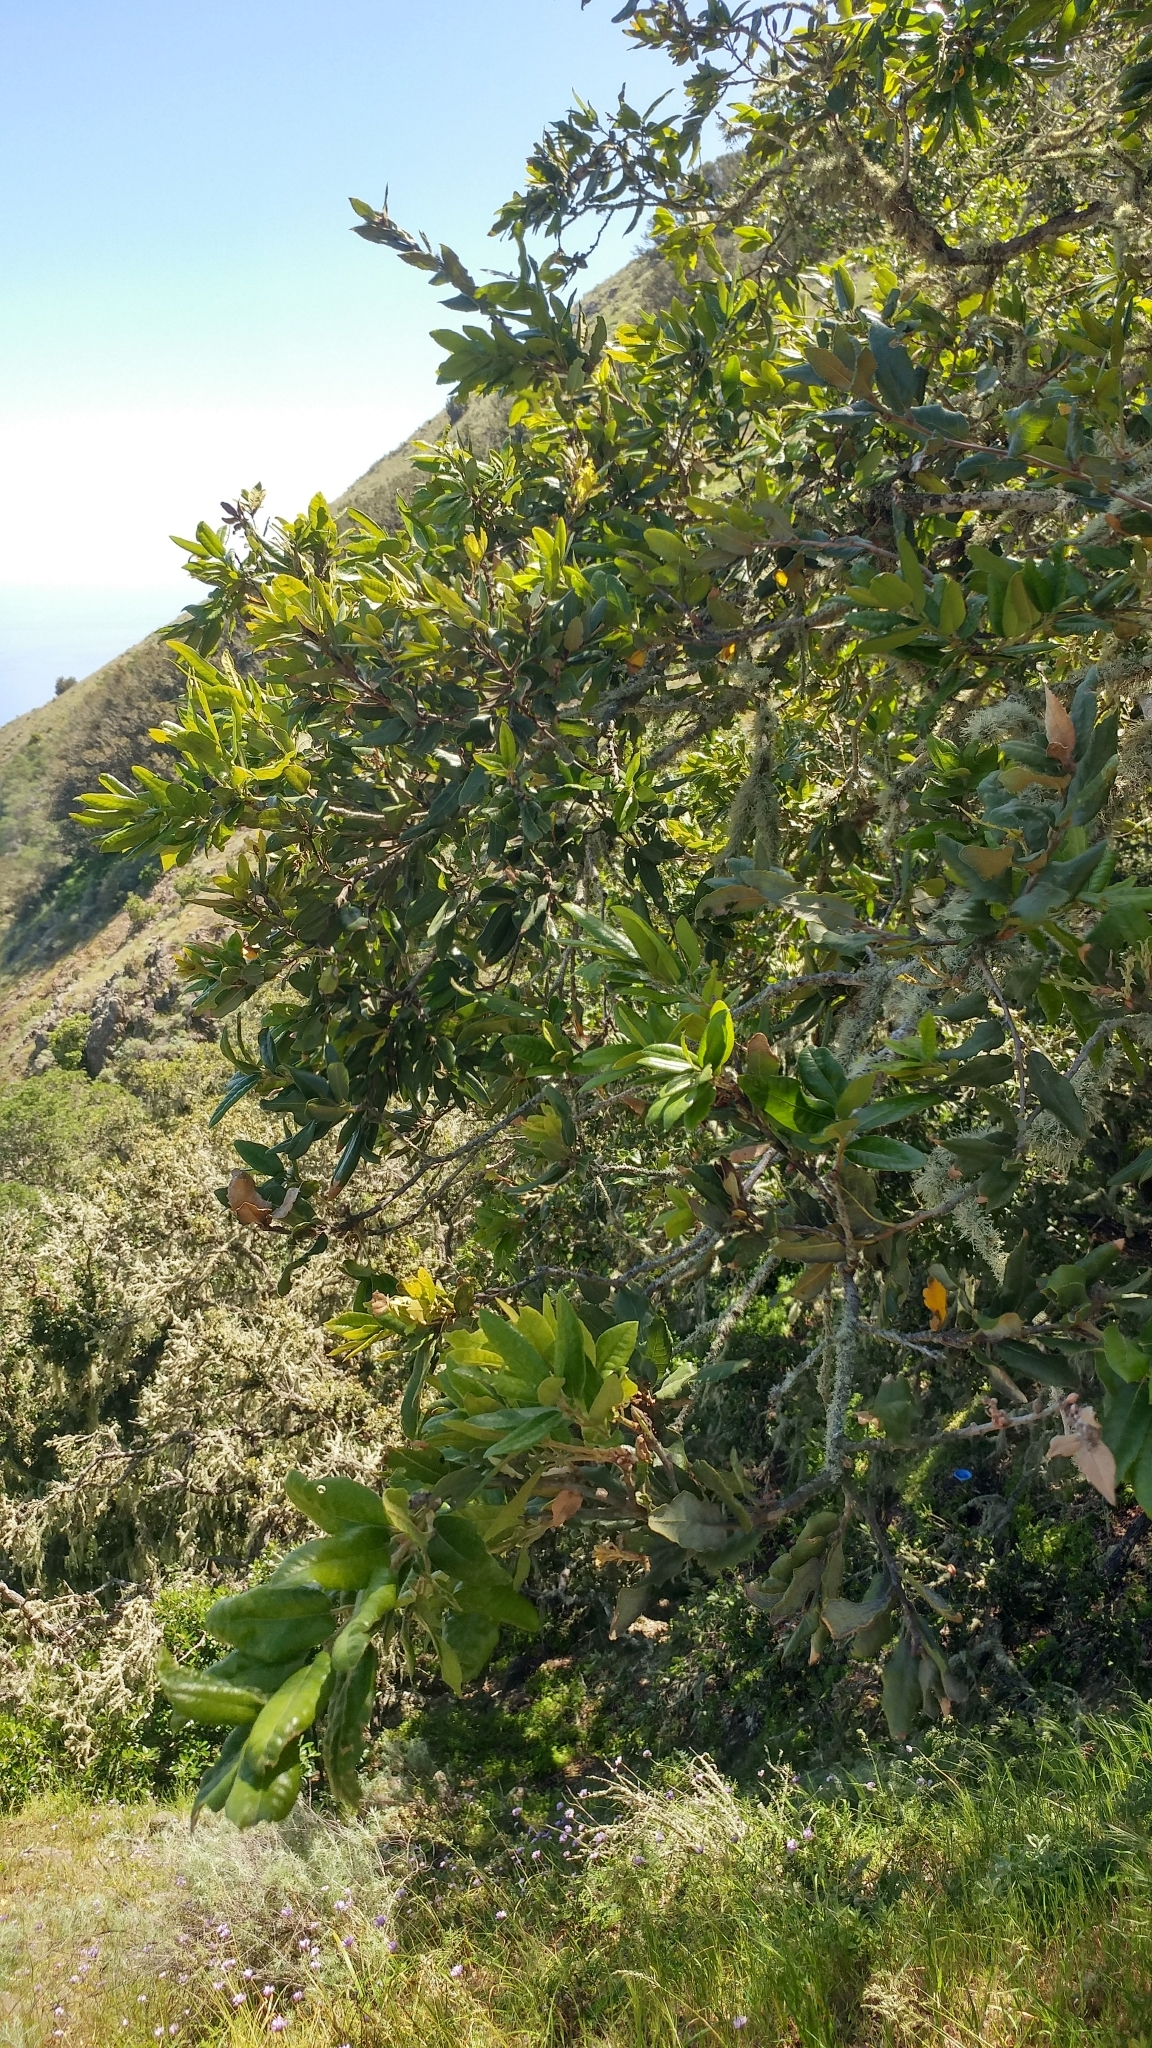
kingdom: Plantae
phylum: Tracheophyta
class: Magnoliopsida
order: Fagales
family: Fagaceae
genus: Quercus
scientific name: Quercus tomentella
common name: Island oak
